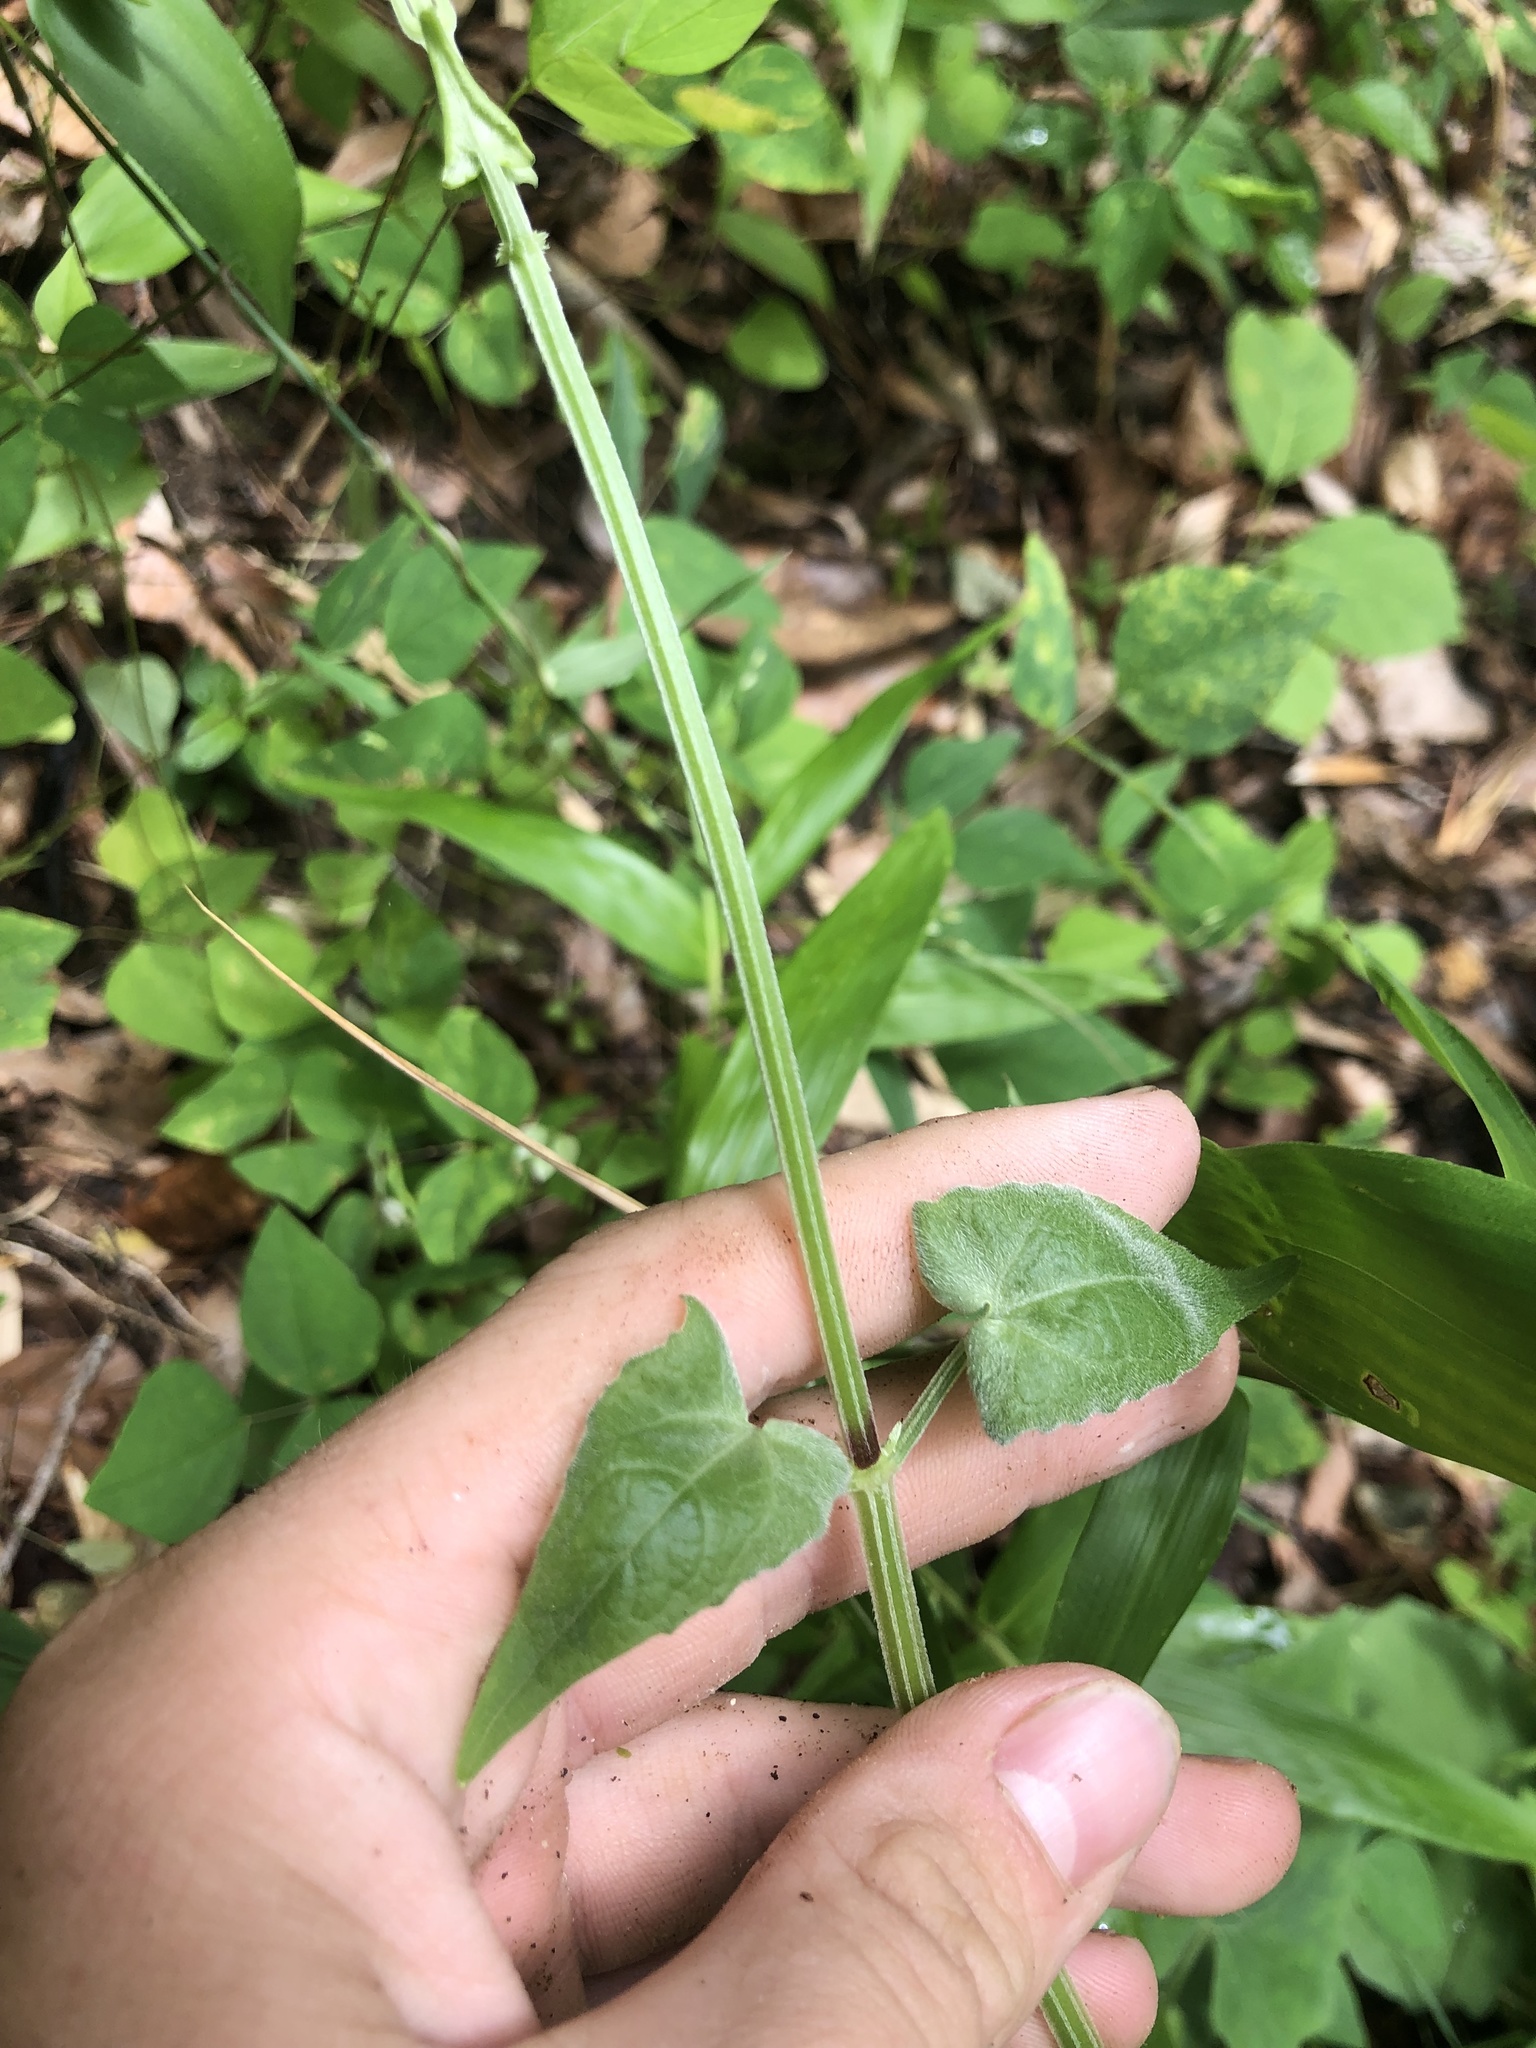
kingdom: Plantae
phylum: Tracheophyta
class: Magnoliopsida
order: Asterales
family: Asteraceae
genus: Mikania
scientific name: Mikania cordifolia
